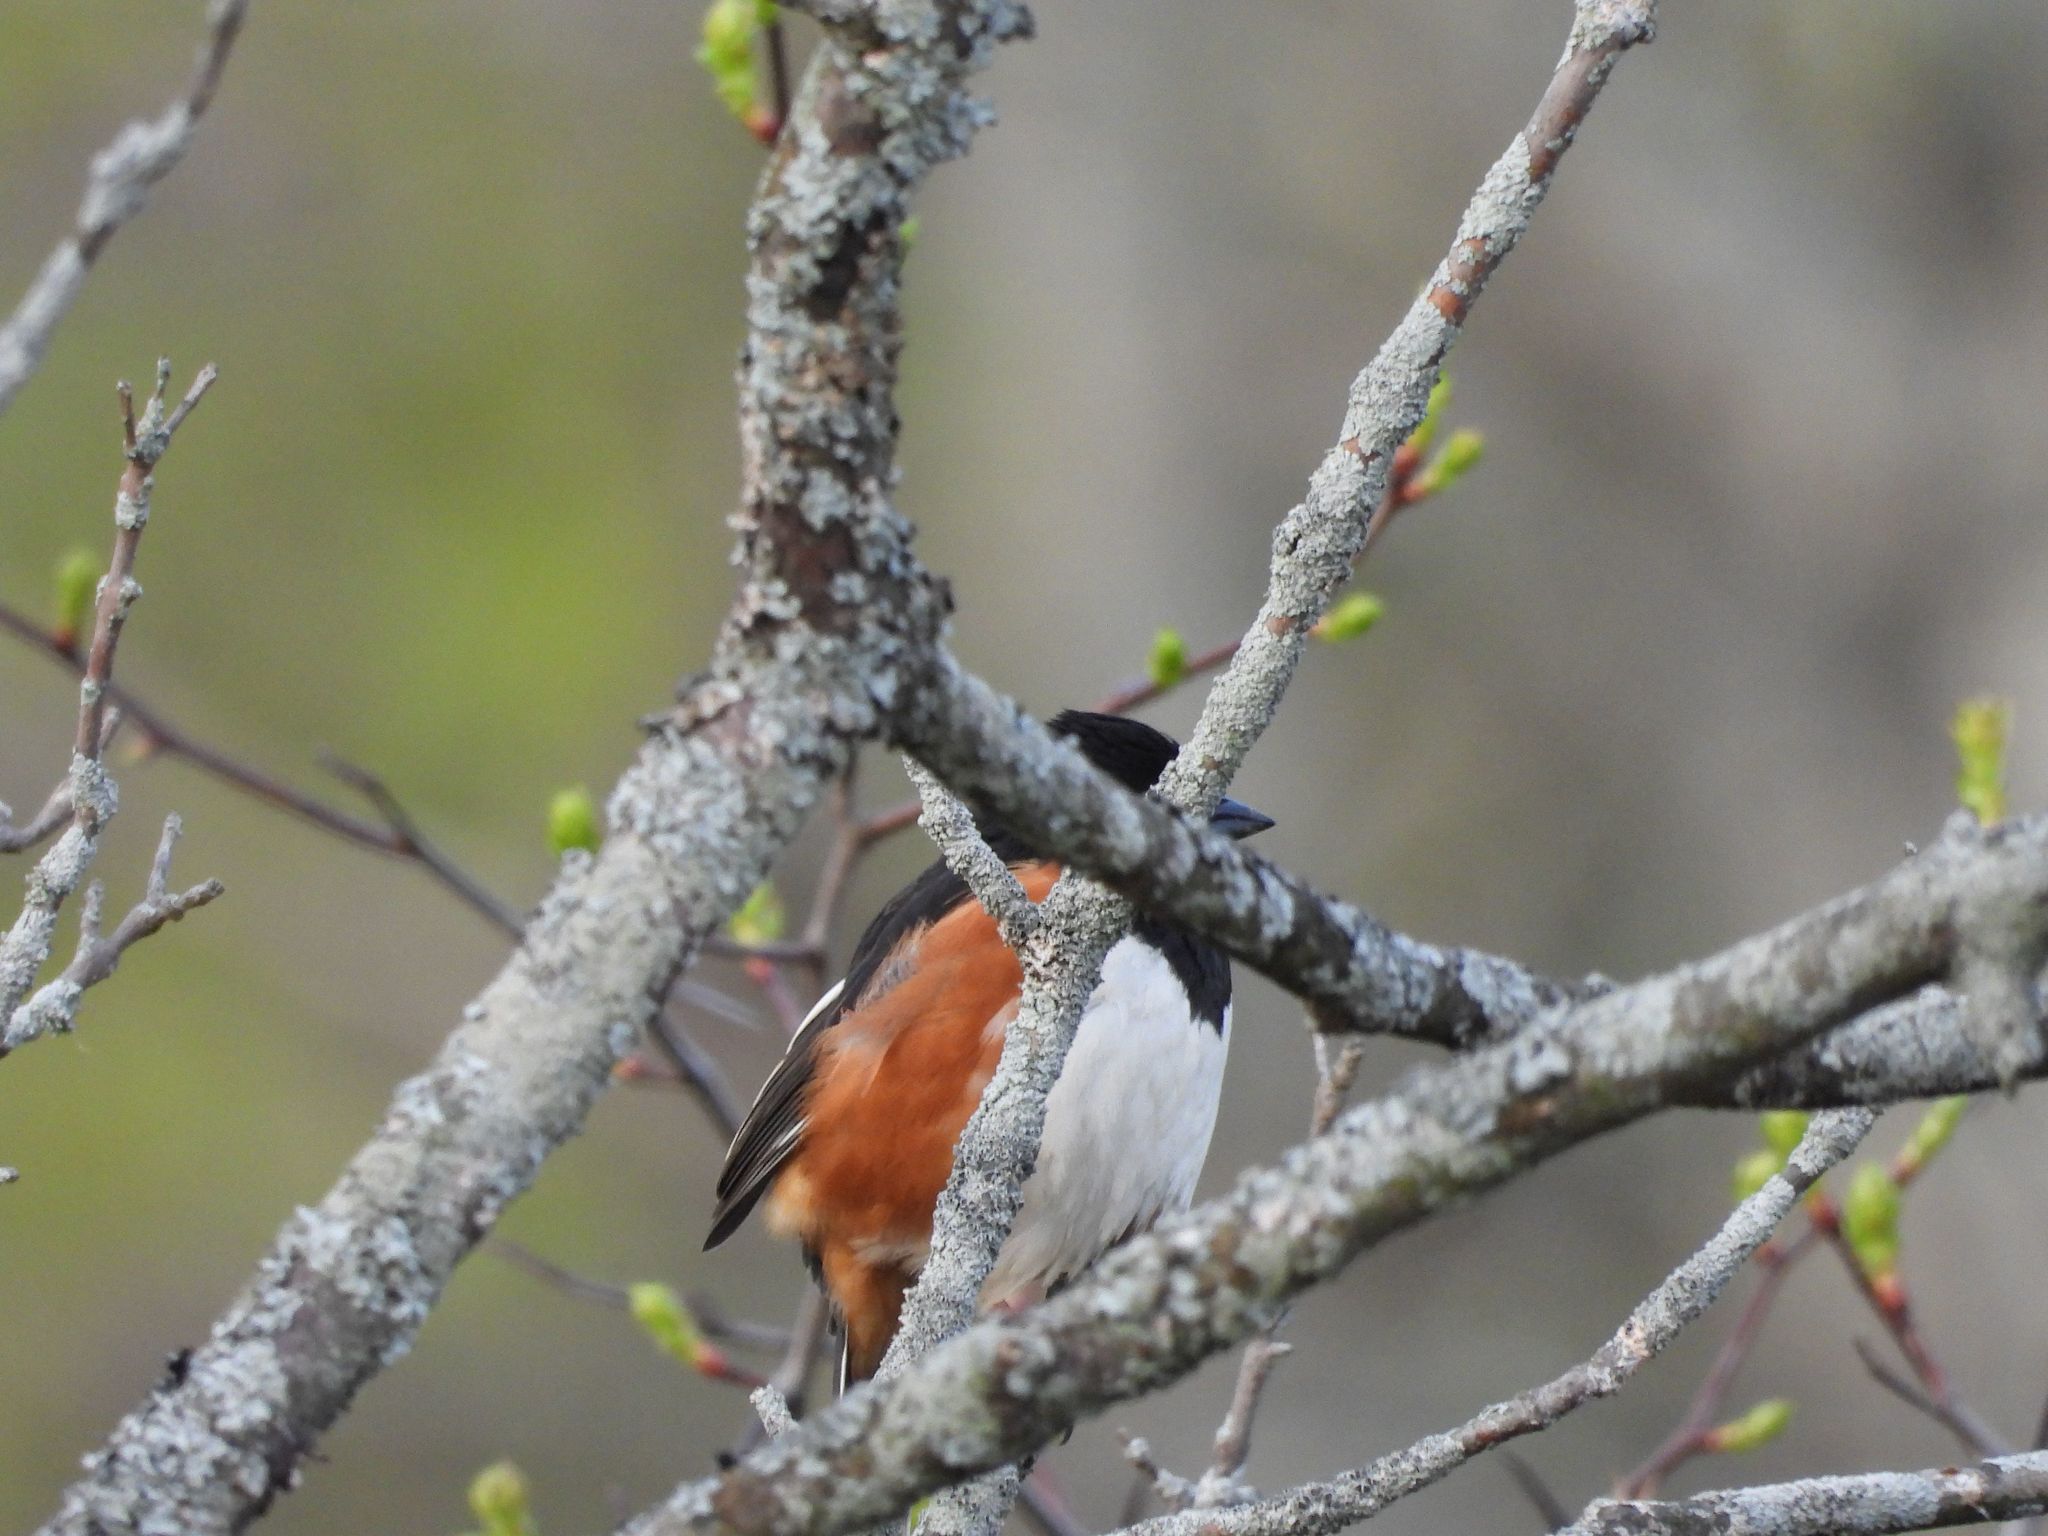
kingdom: Animalia
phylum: Chordata
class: Aves
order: Passeriformes
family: Passerellidae
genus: Pipilo
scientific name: Pipilo erythrophthalmus
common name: Eastern towhee
